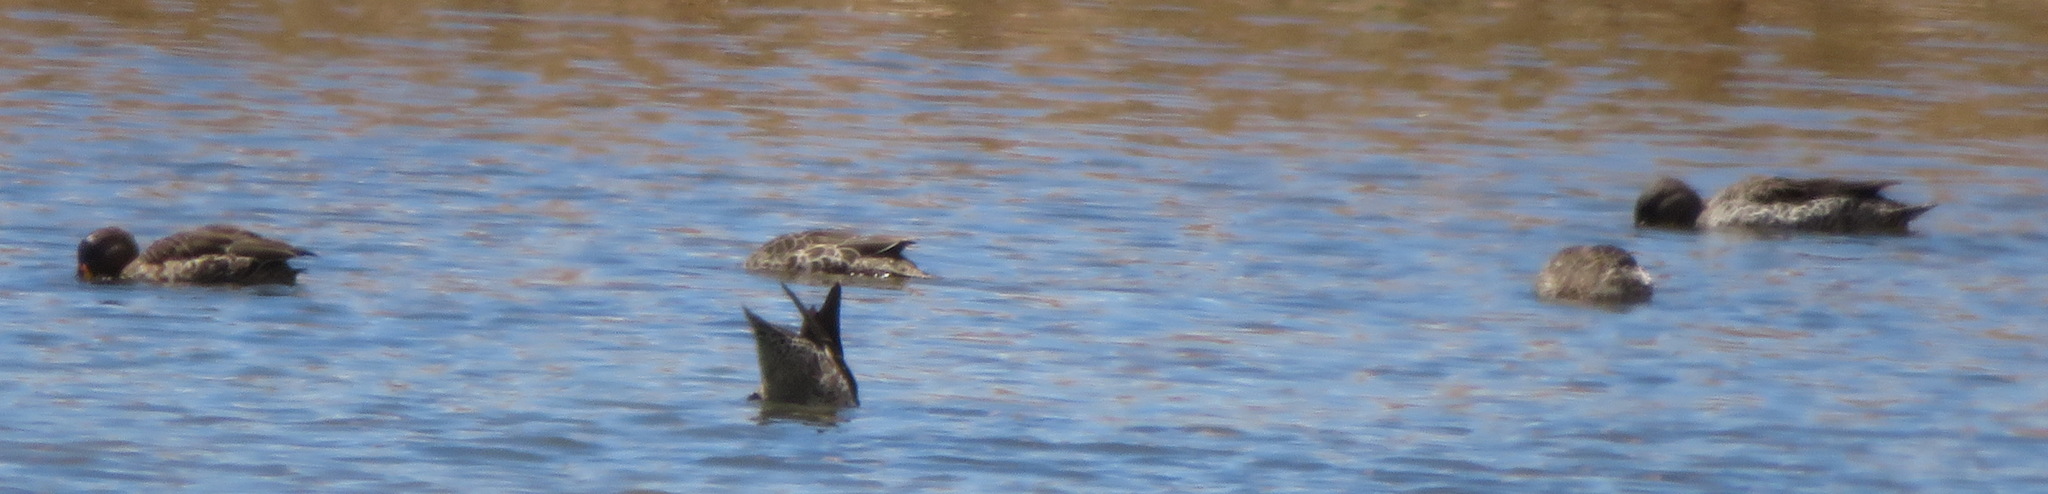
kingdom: Animalia
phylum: Chordata
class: Aves
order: Anseriformes
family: Anatidae
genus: Anas
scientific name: Anas undulata
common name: Yellow-billed duck
